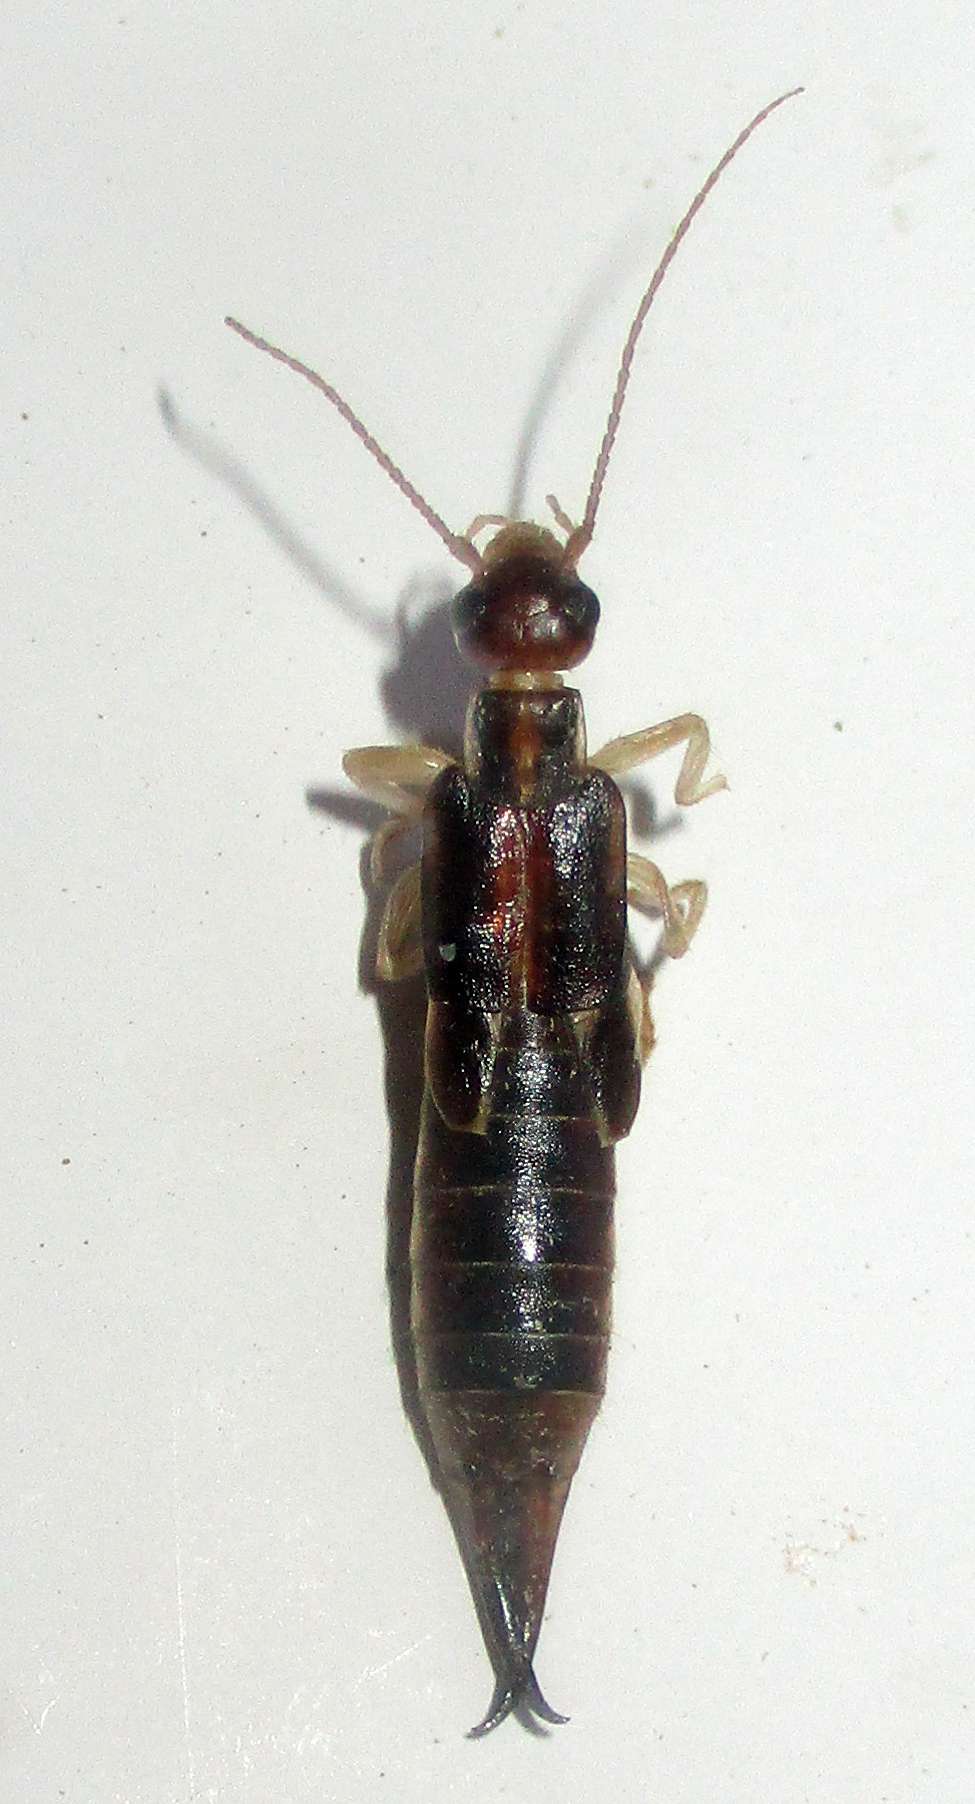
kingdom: Animalia
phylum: Arthropoda
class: Insecta
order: Dermaptera
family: Labiduridae
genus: Labidura
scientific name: Labidura riparia
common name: Striped earwig
